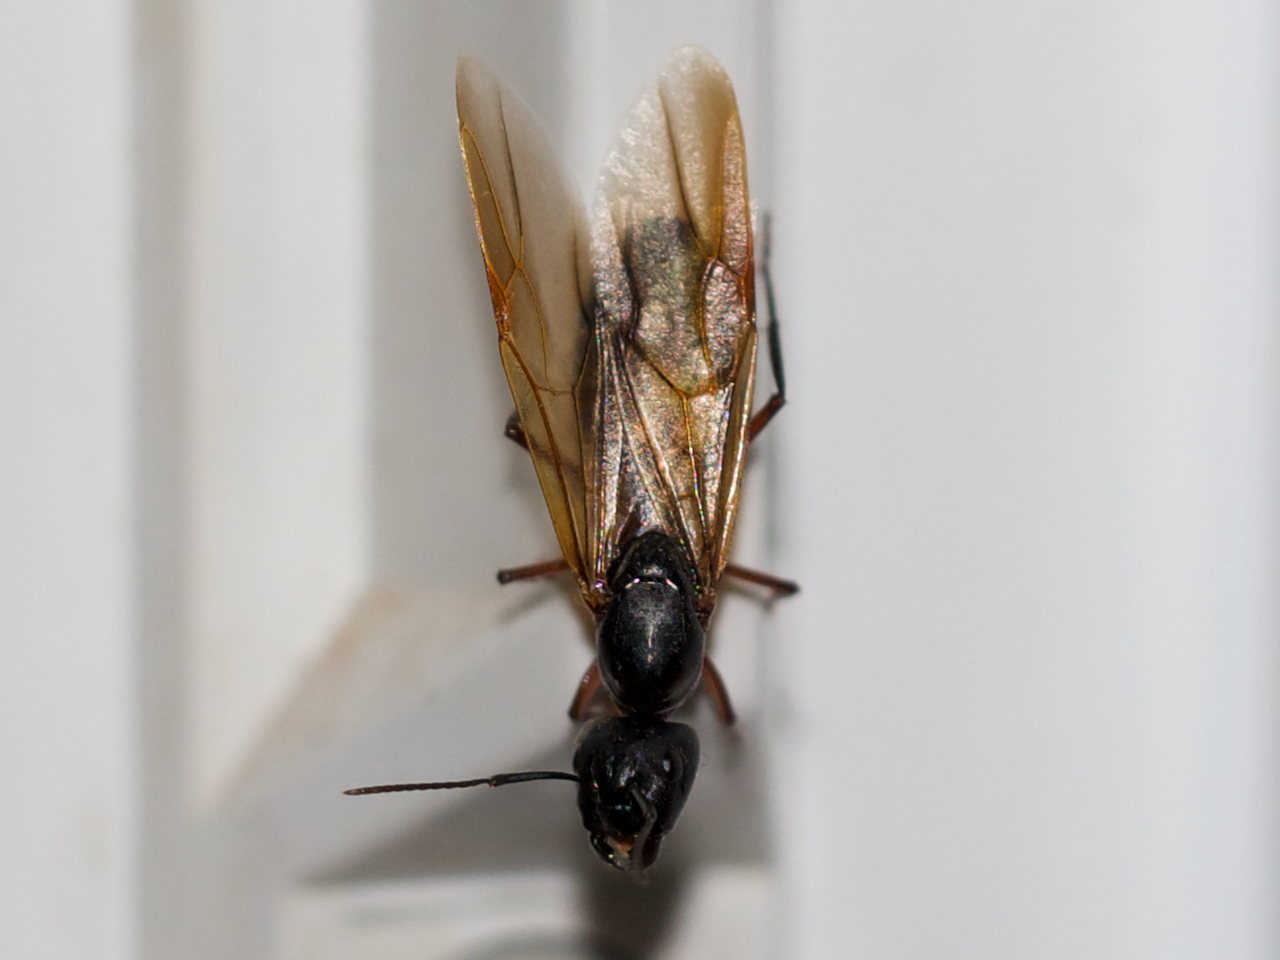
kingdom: Animalia
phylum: Arthropoda
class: Insecta
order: Hymenoptera
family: Formicidae
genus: Camponotus
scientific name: Camponotus chromaiodes
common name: Red carpenter ant
